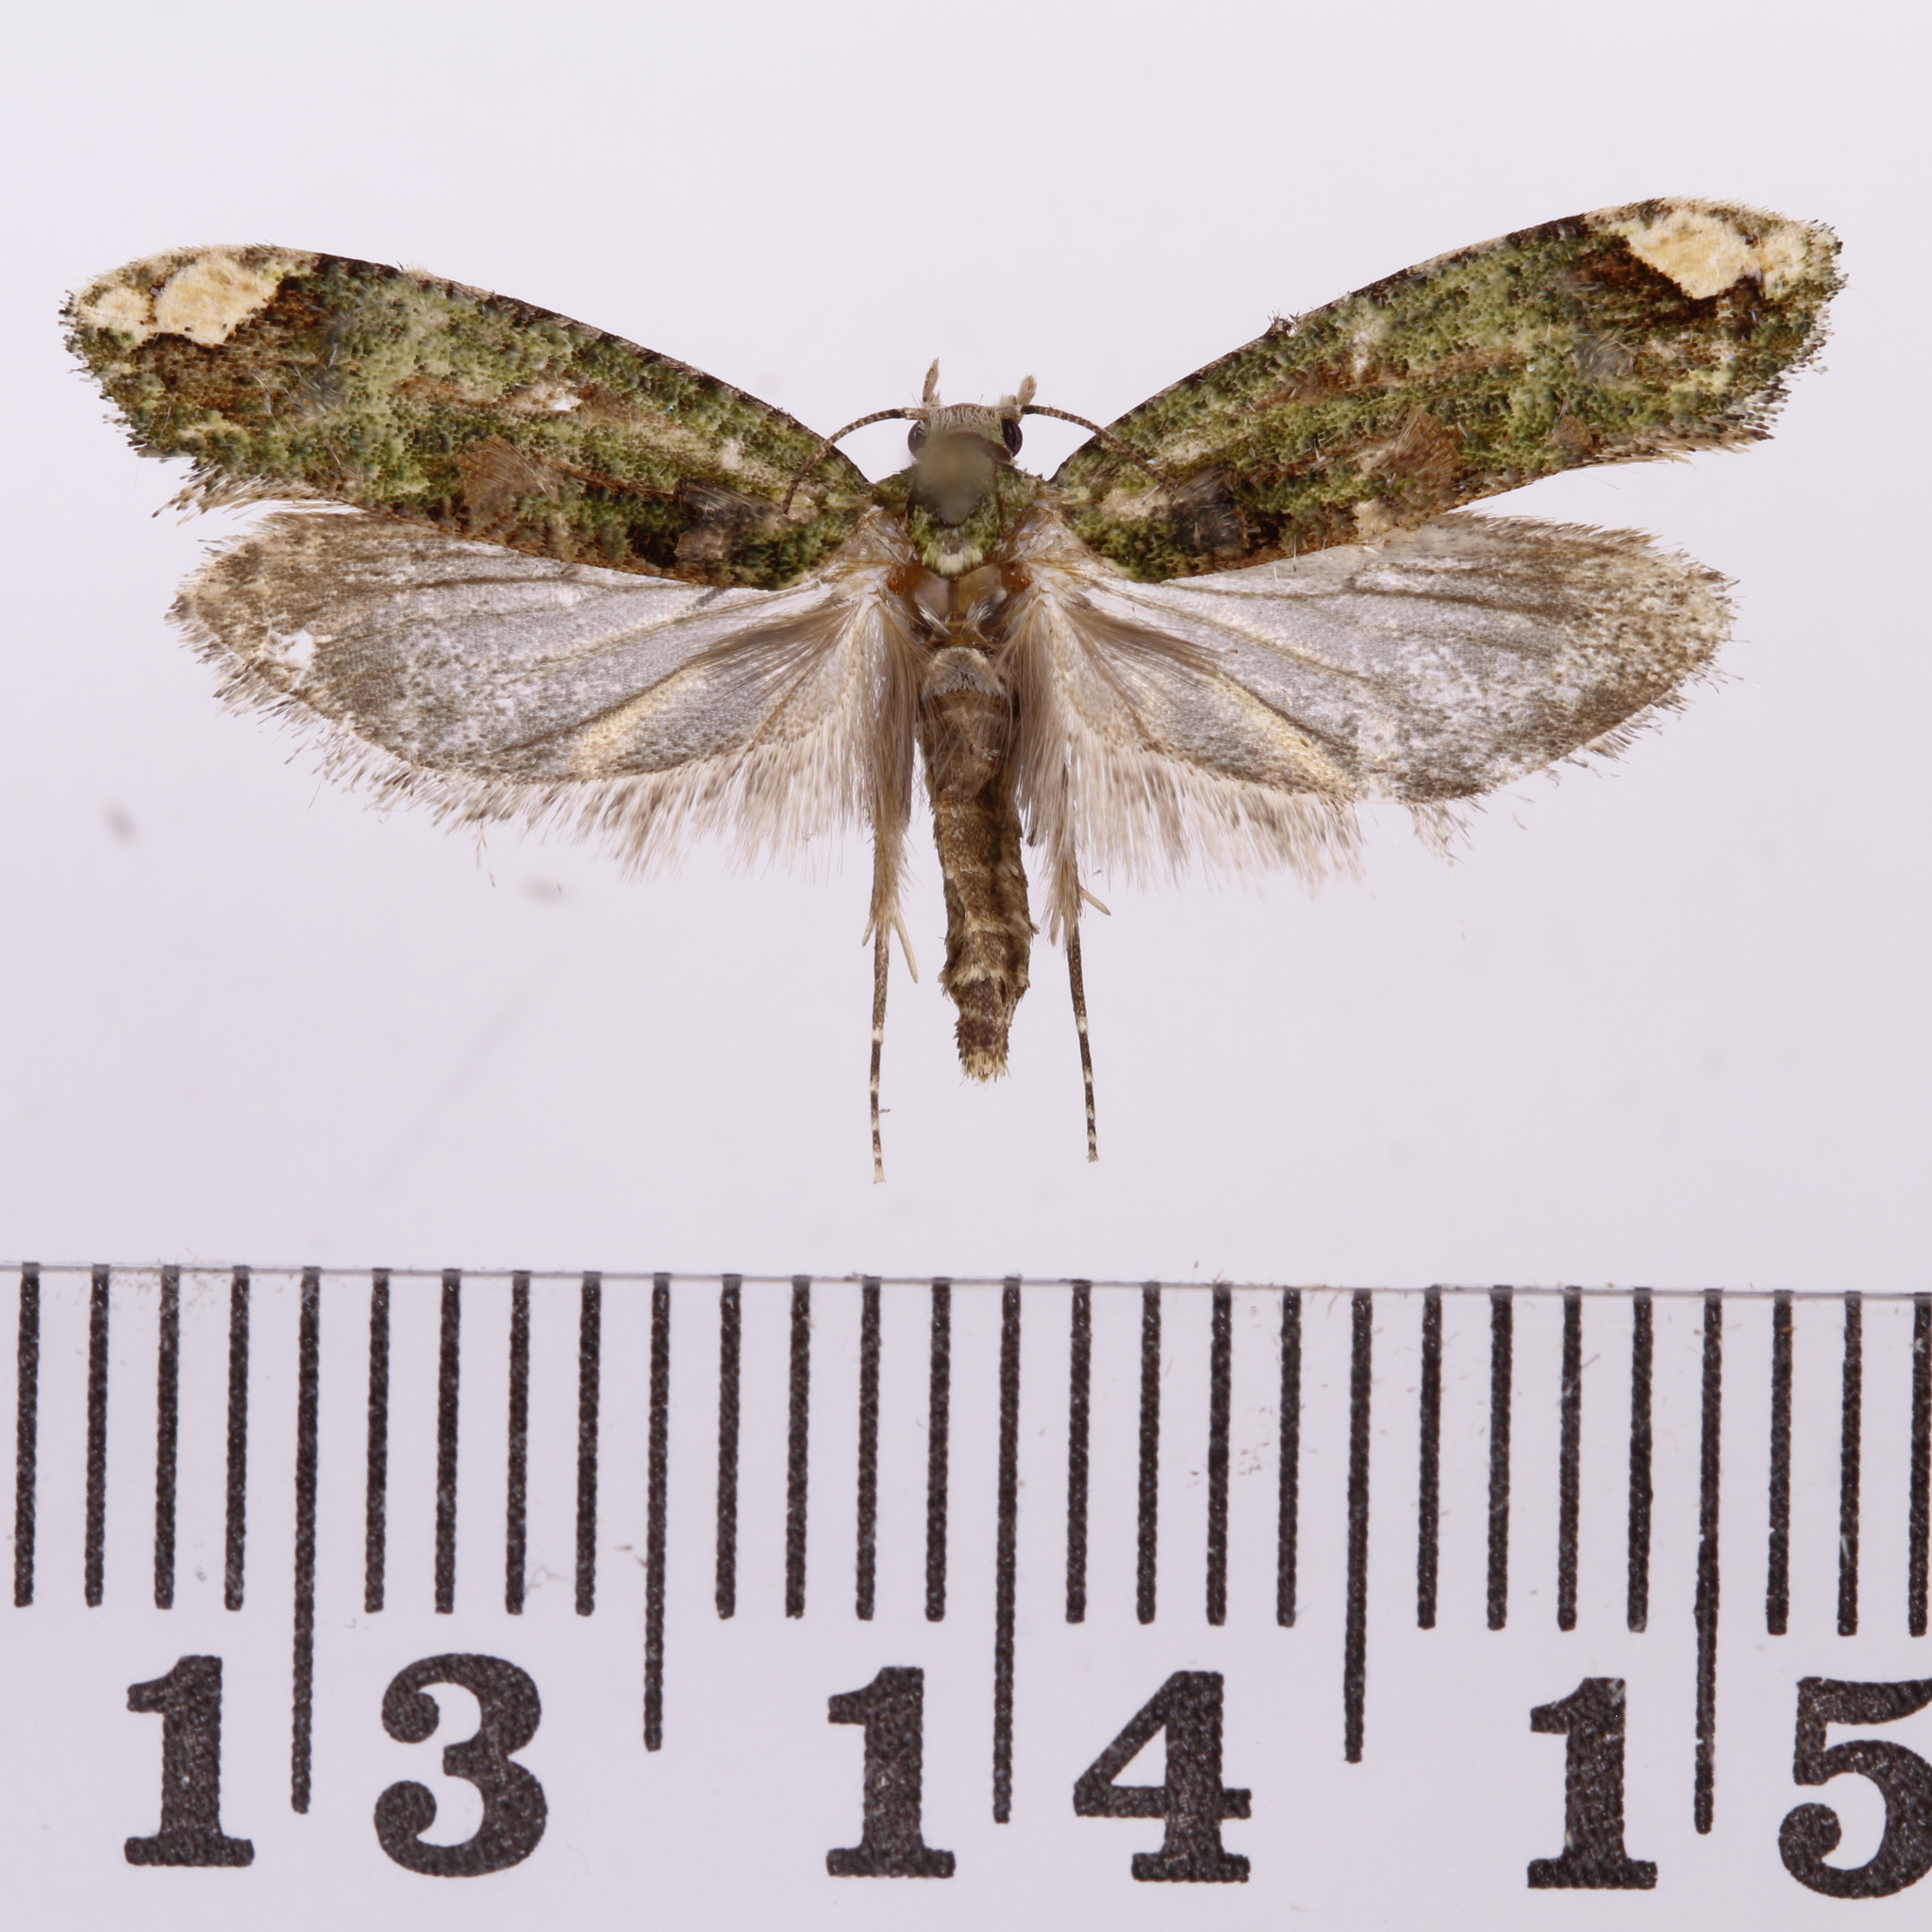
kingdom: Animalia
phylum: Arthropoda
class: Insecta
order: Lepidoptera
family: Tineidae
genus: Lysiphragma
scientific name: Lysiphragma mixochlora
